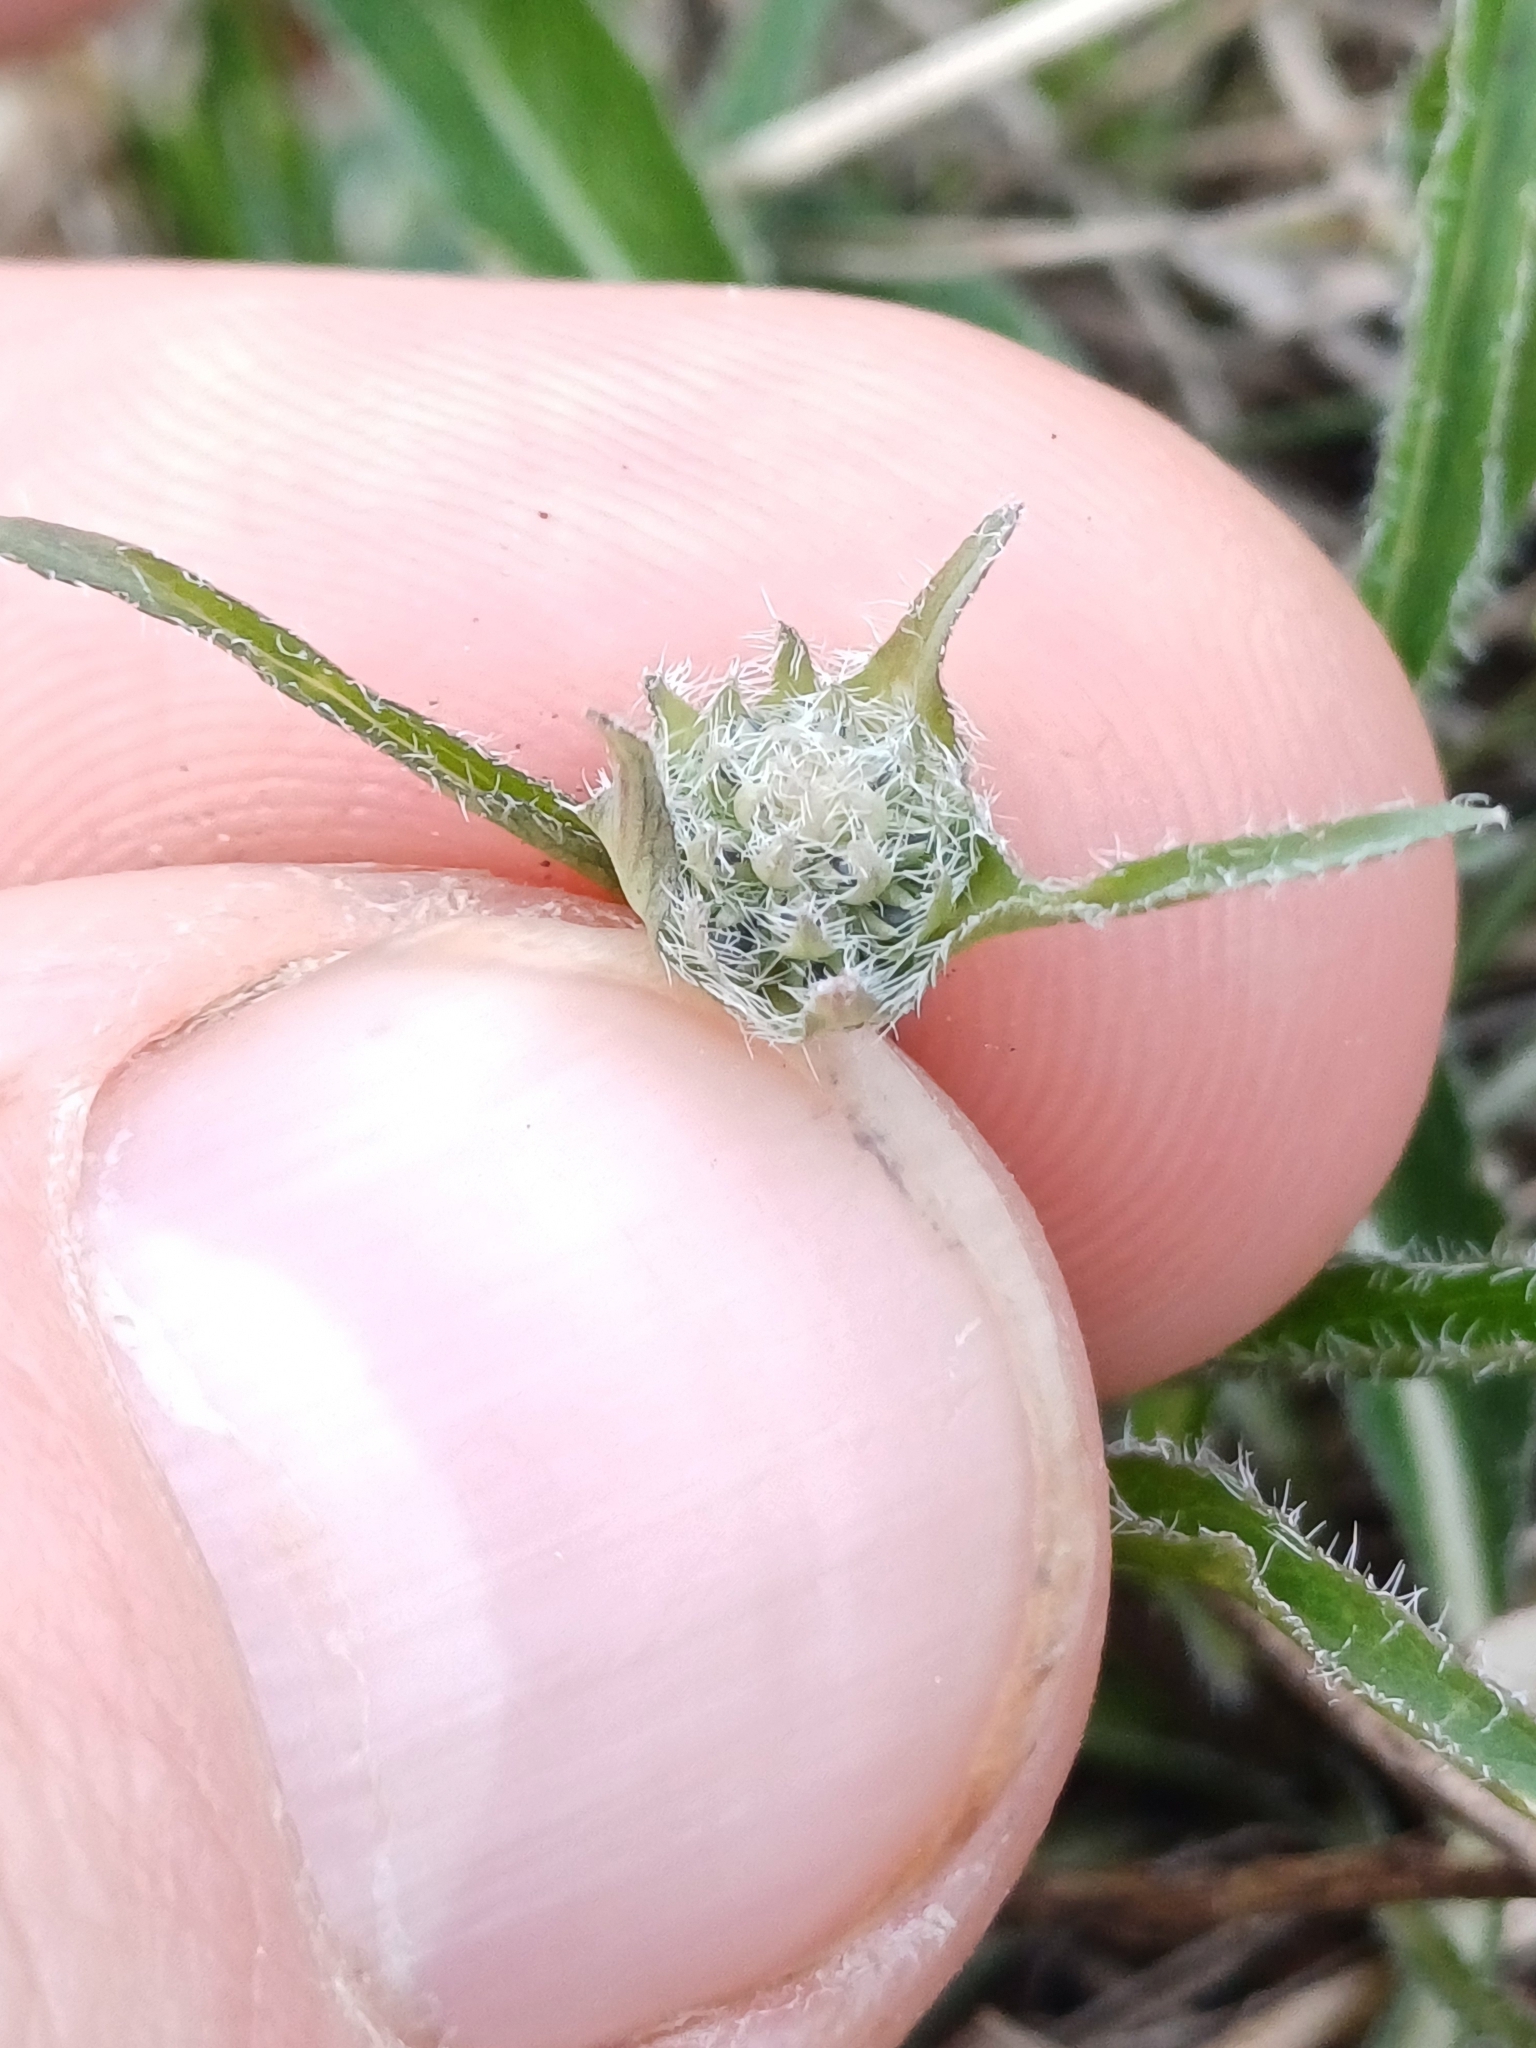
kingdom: Plantae
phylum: Tracheophyta
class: Magnoliopsida
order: Asterales
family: Campanulaceae
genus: Phyteuma
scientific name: Phyteuma orbiculare
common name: Round-headed rampion
